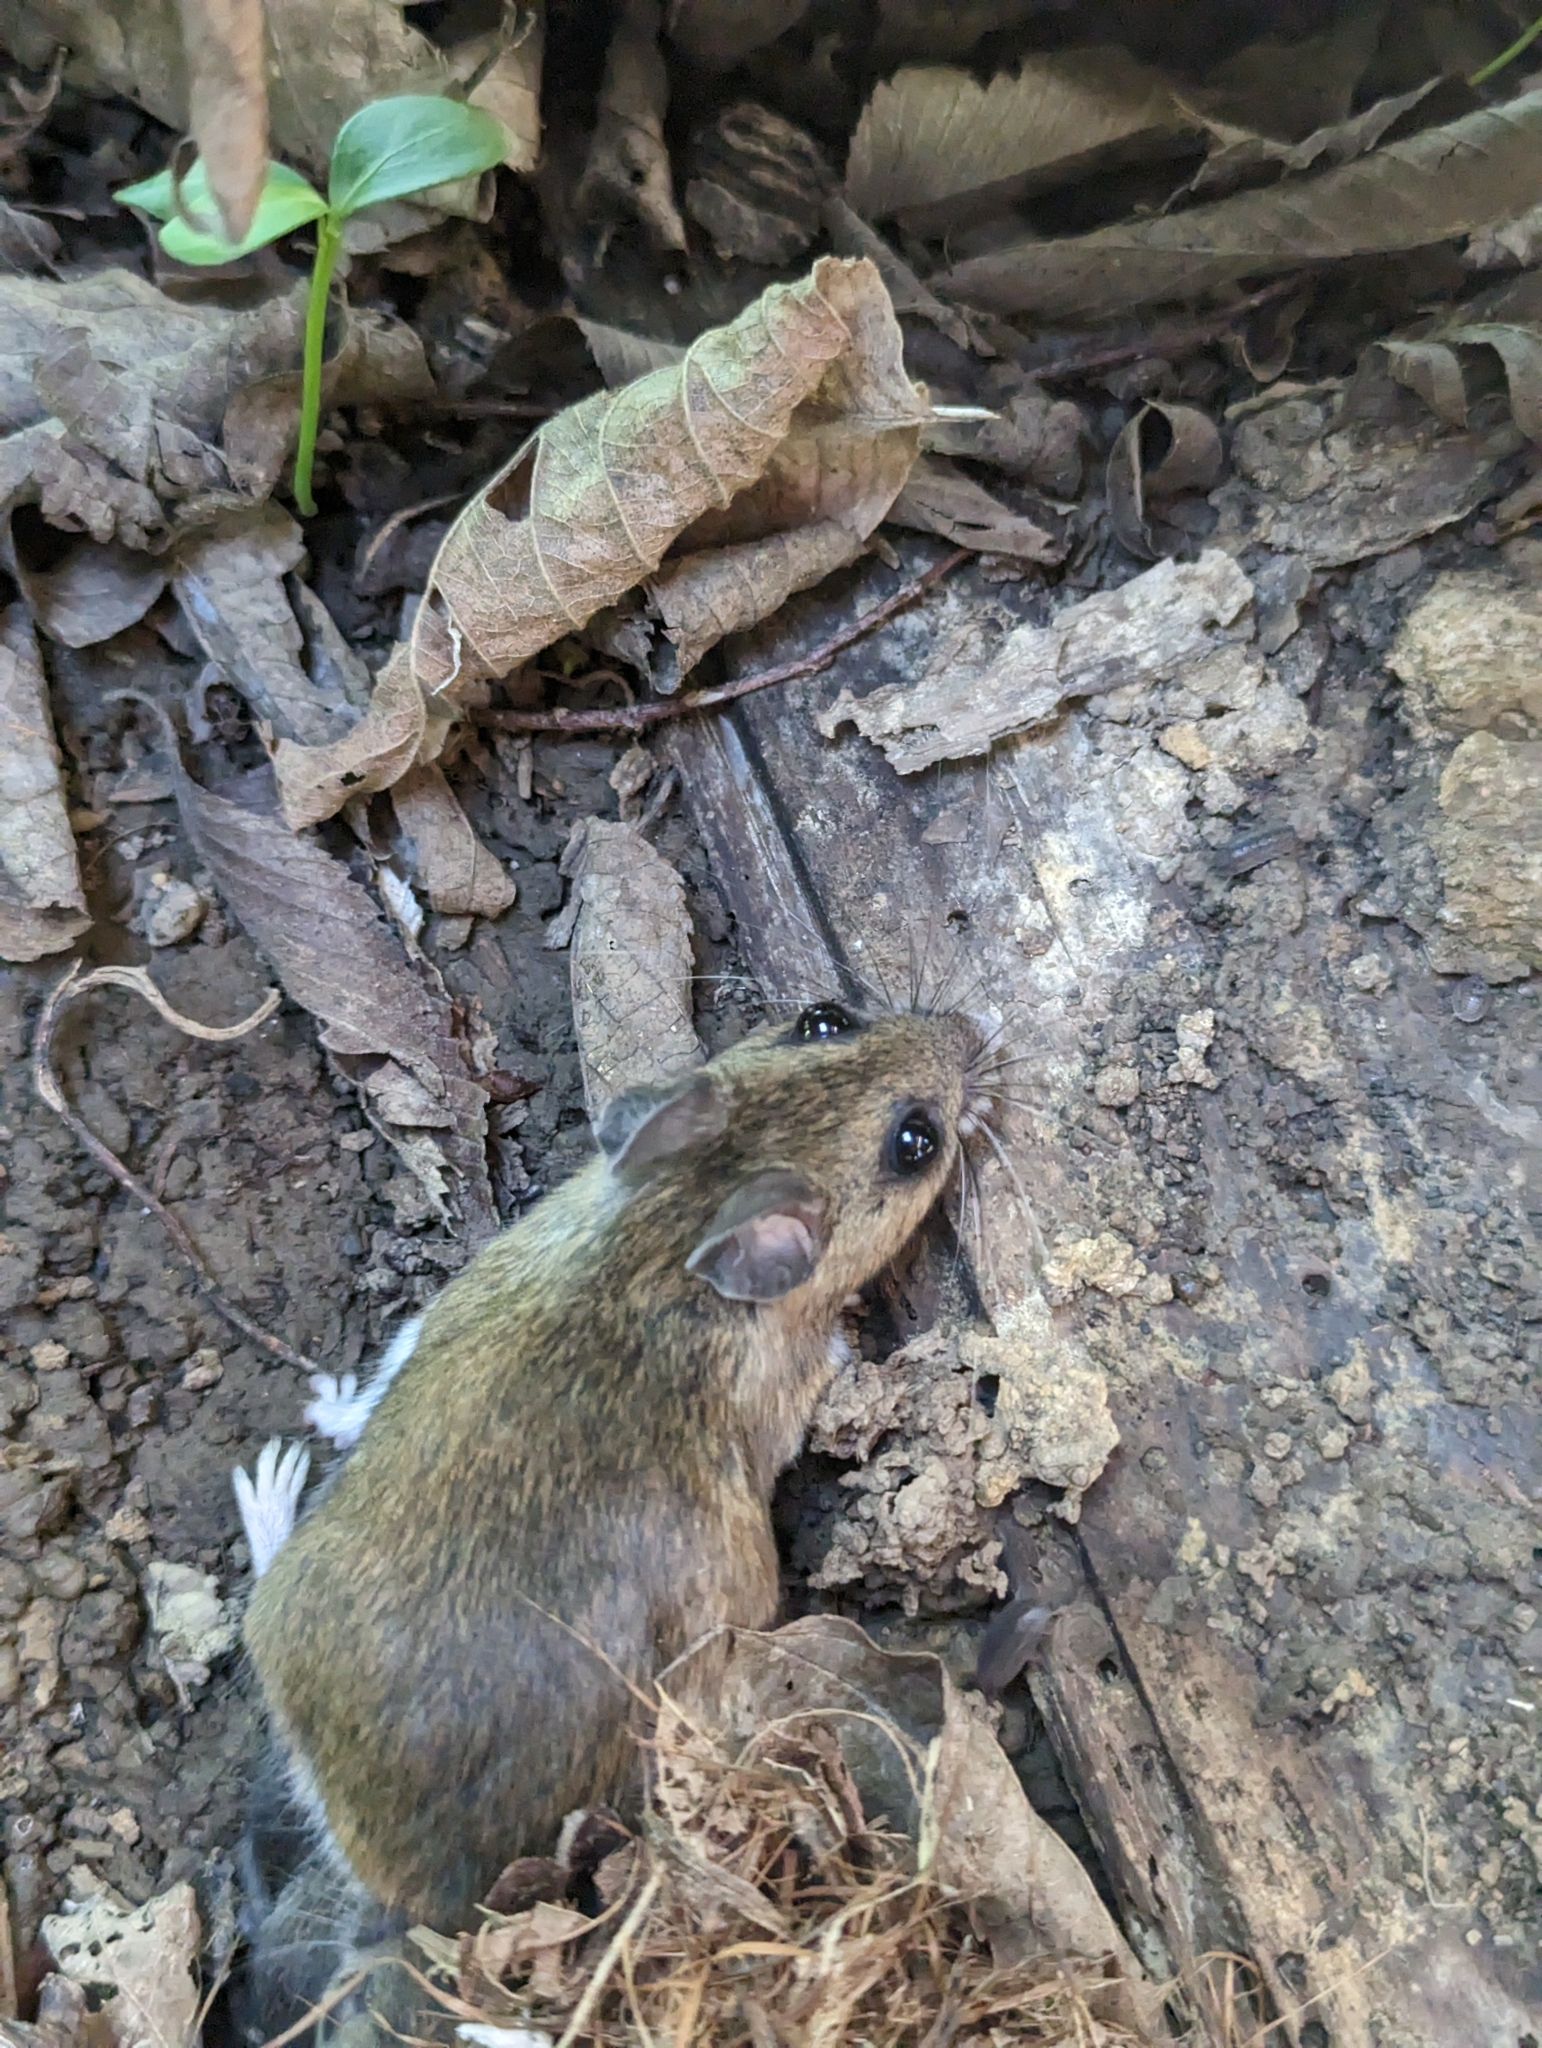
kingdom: Animalia
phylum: Chordata
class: Mammalia
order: Rodentia
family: Cricetidae
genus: Peromyscus
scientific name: Peromyscus leucopus
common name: White-footed deermouse
